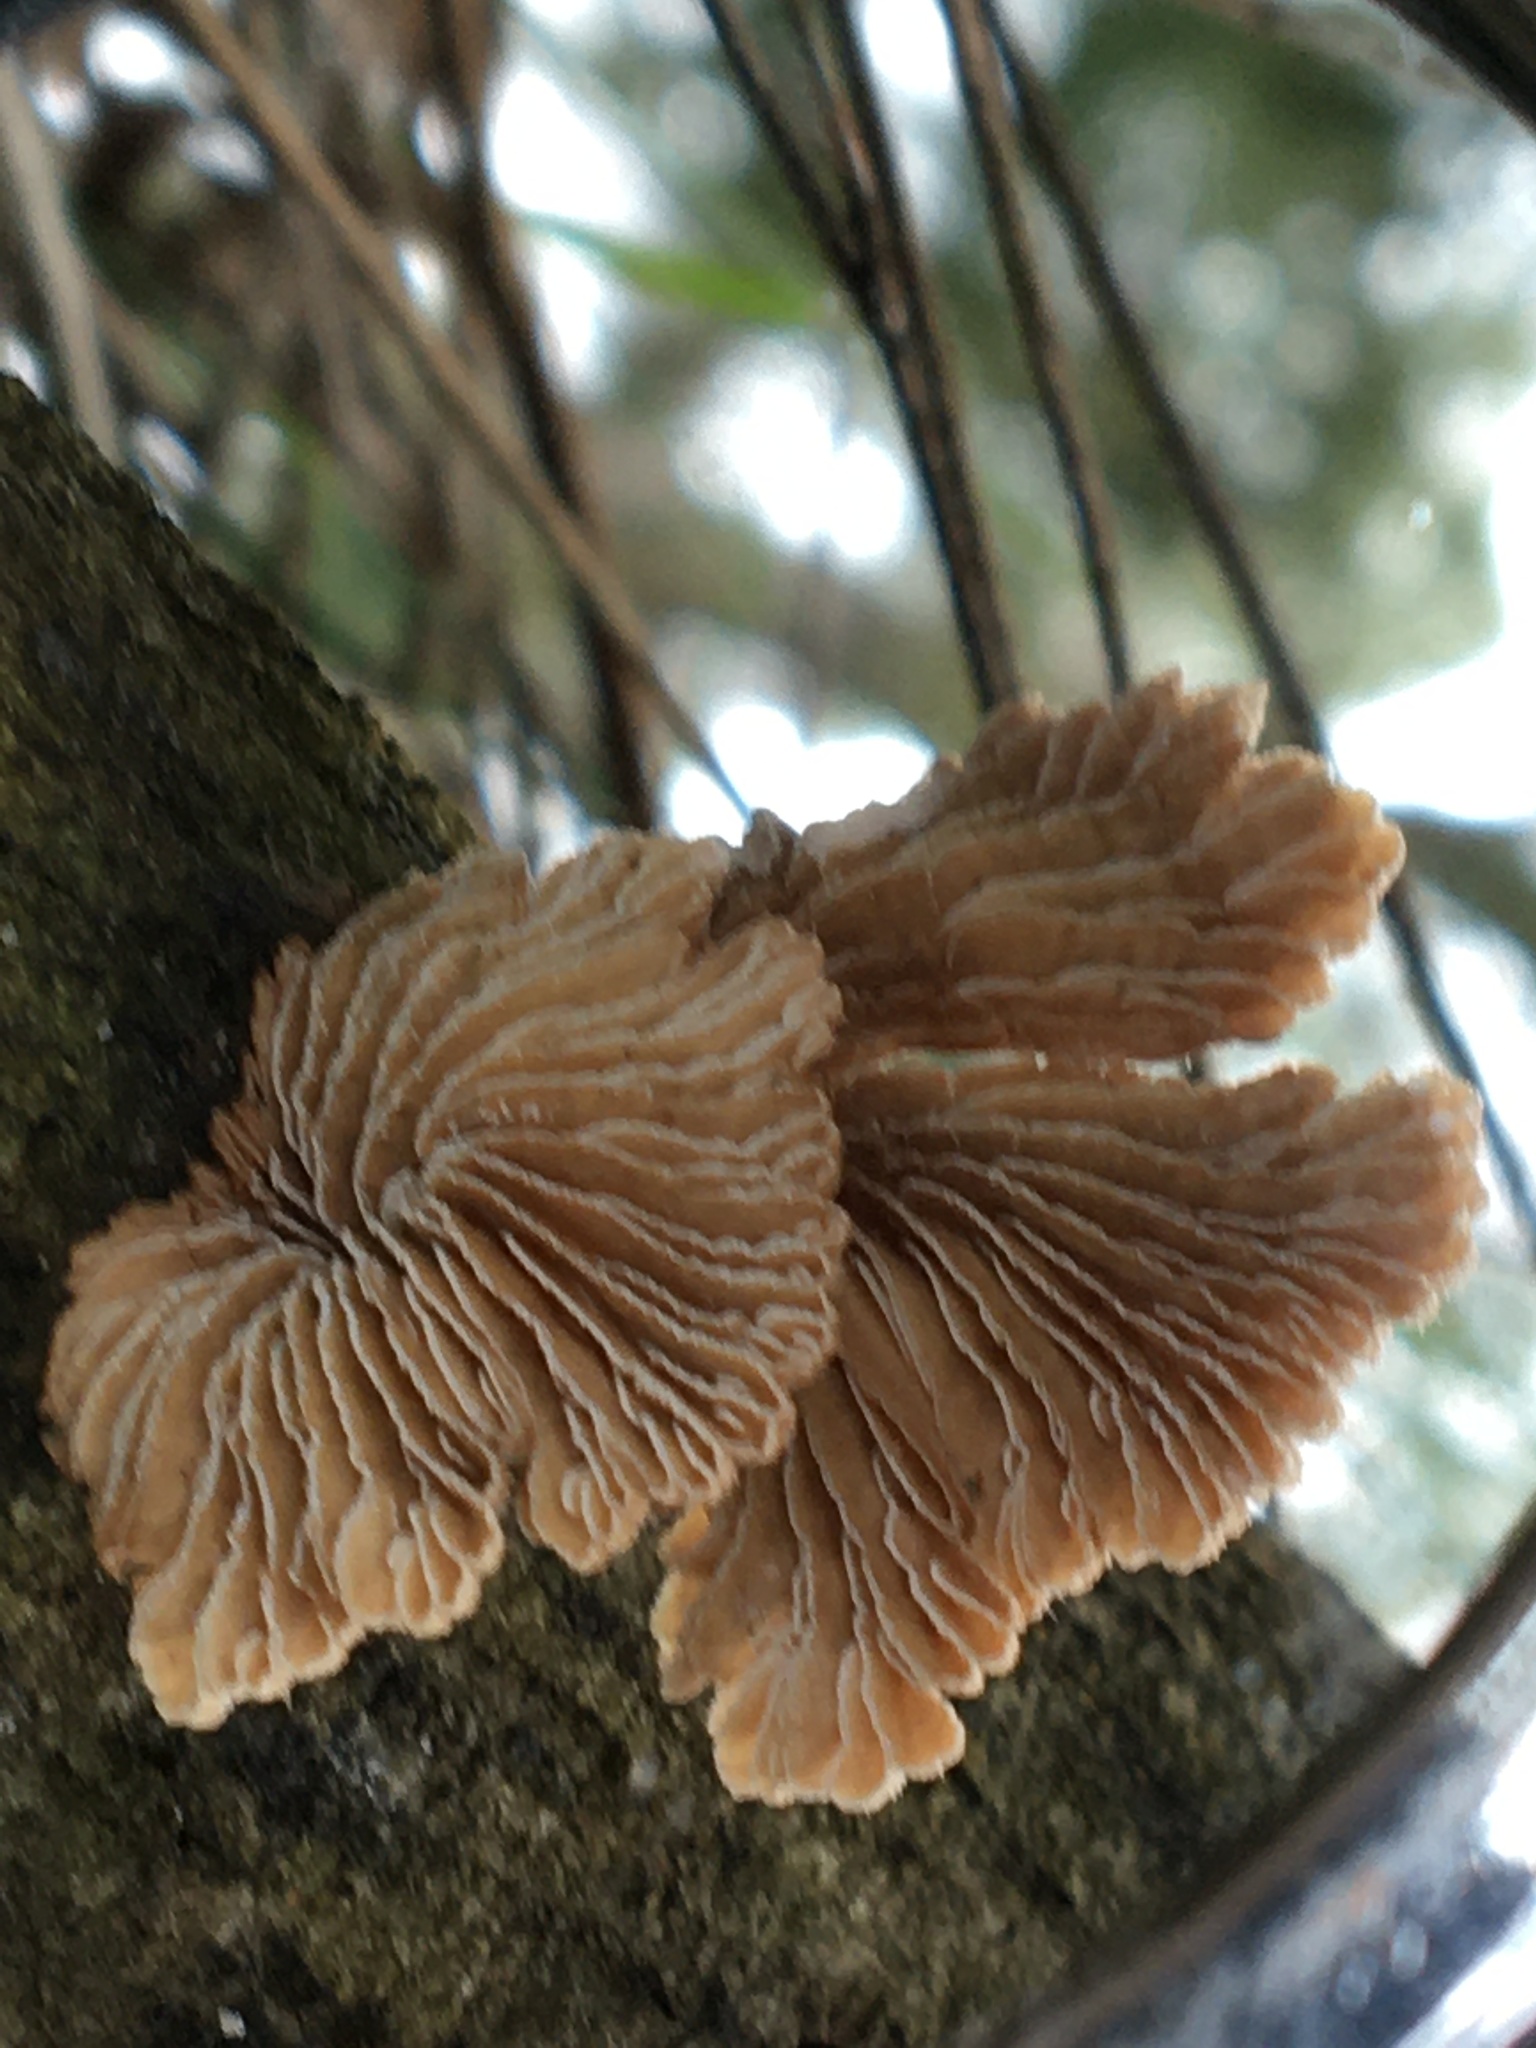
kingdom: Fungi
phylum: Basidiomycota
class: Agaricomycetes
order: Agaricales
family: Schizophyllaceae
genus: Schizophyllum
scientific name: Schizophyllum commune
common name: Common porecrust
